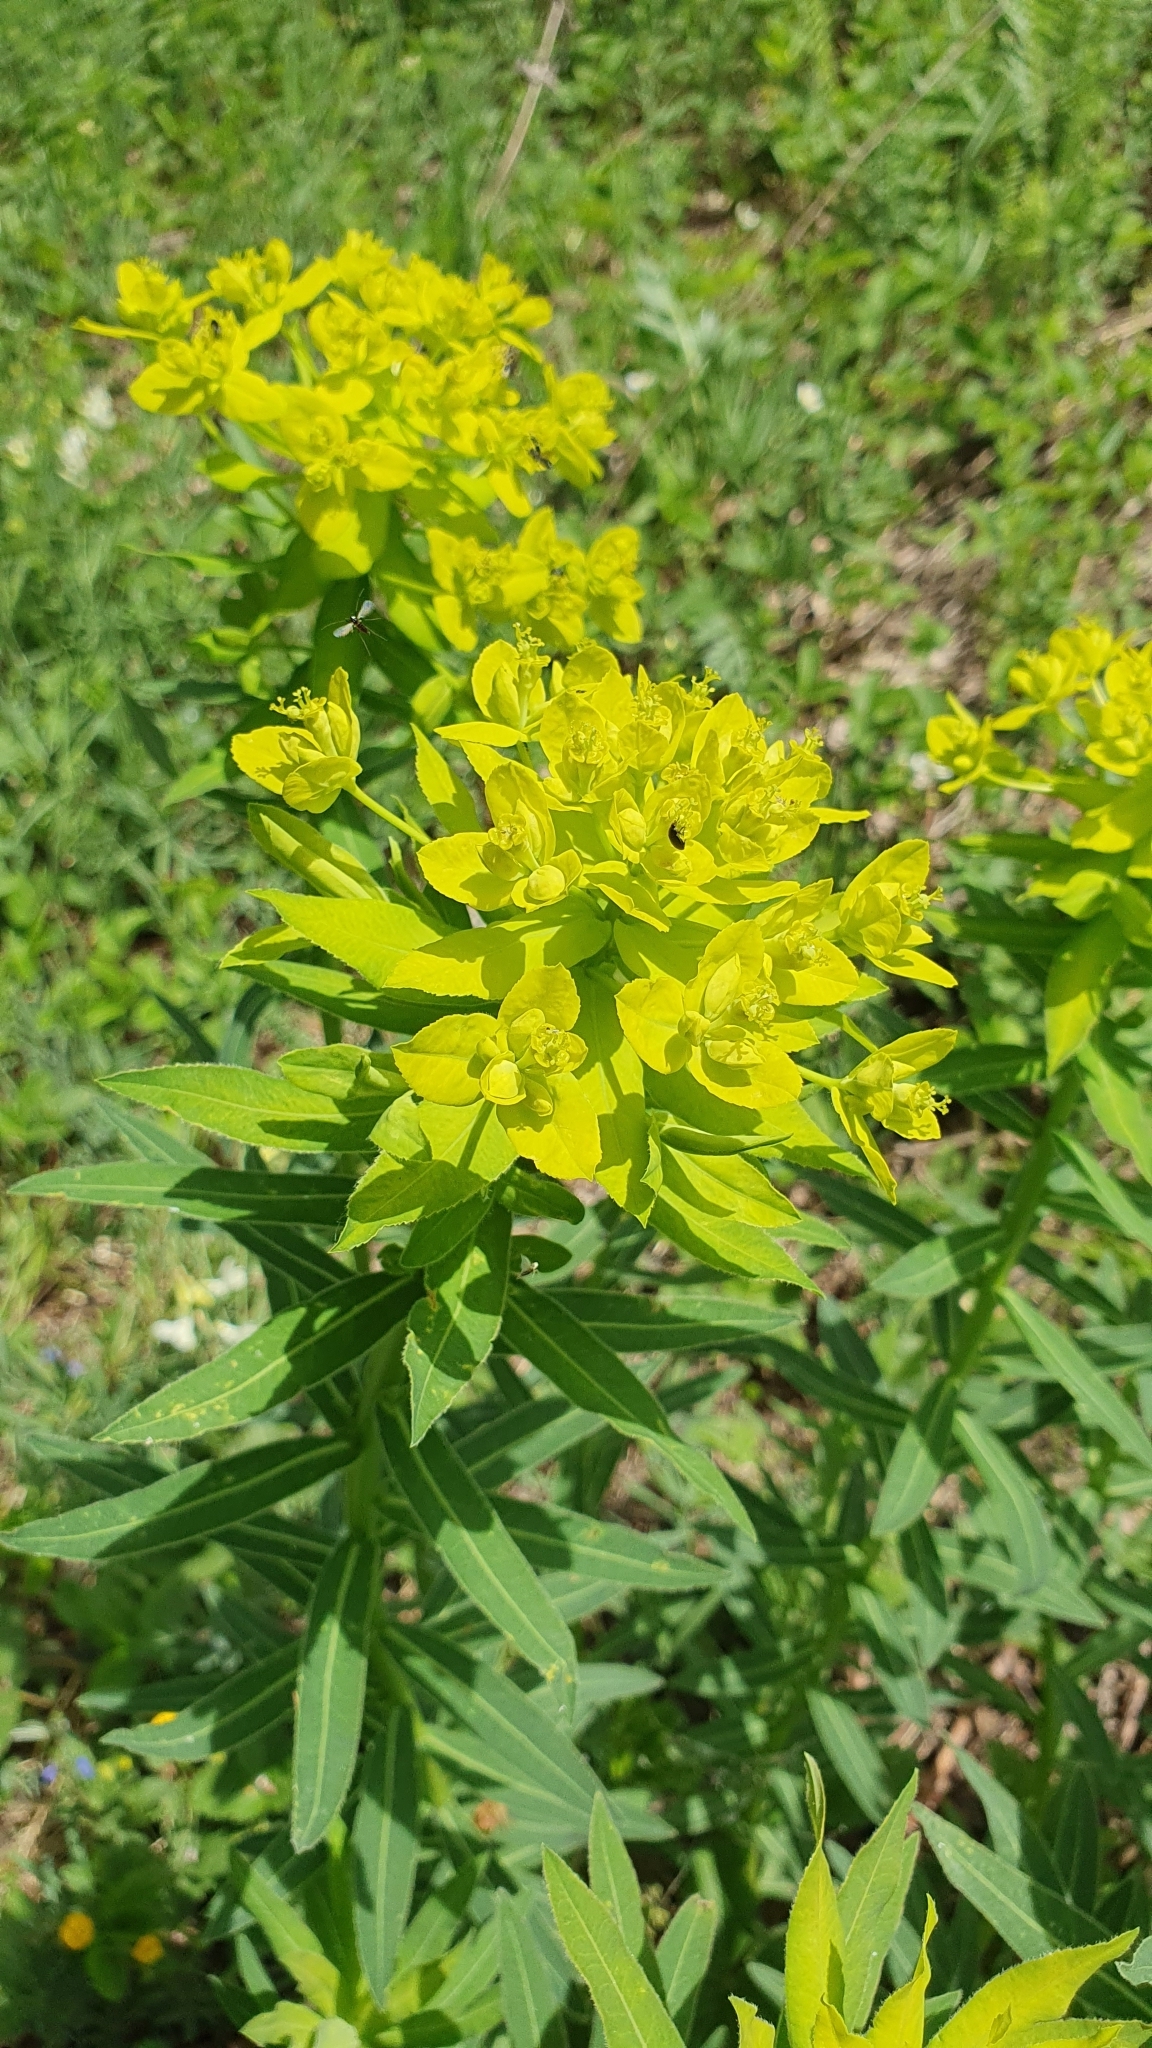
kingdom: Plantae
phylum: Tracheophyta
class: Magnoliopsida
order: Malpighiales
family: Euphorbiaceae
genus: Euphorbia
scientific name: Euphorbia semivillosa
